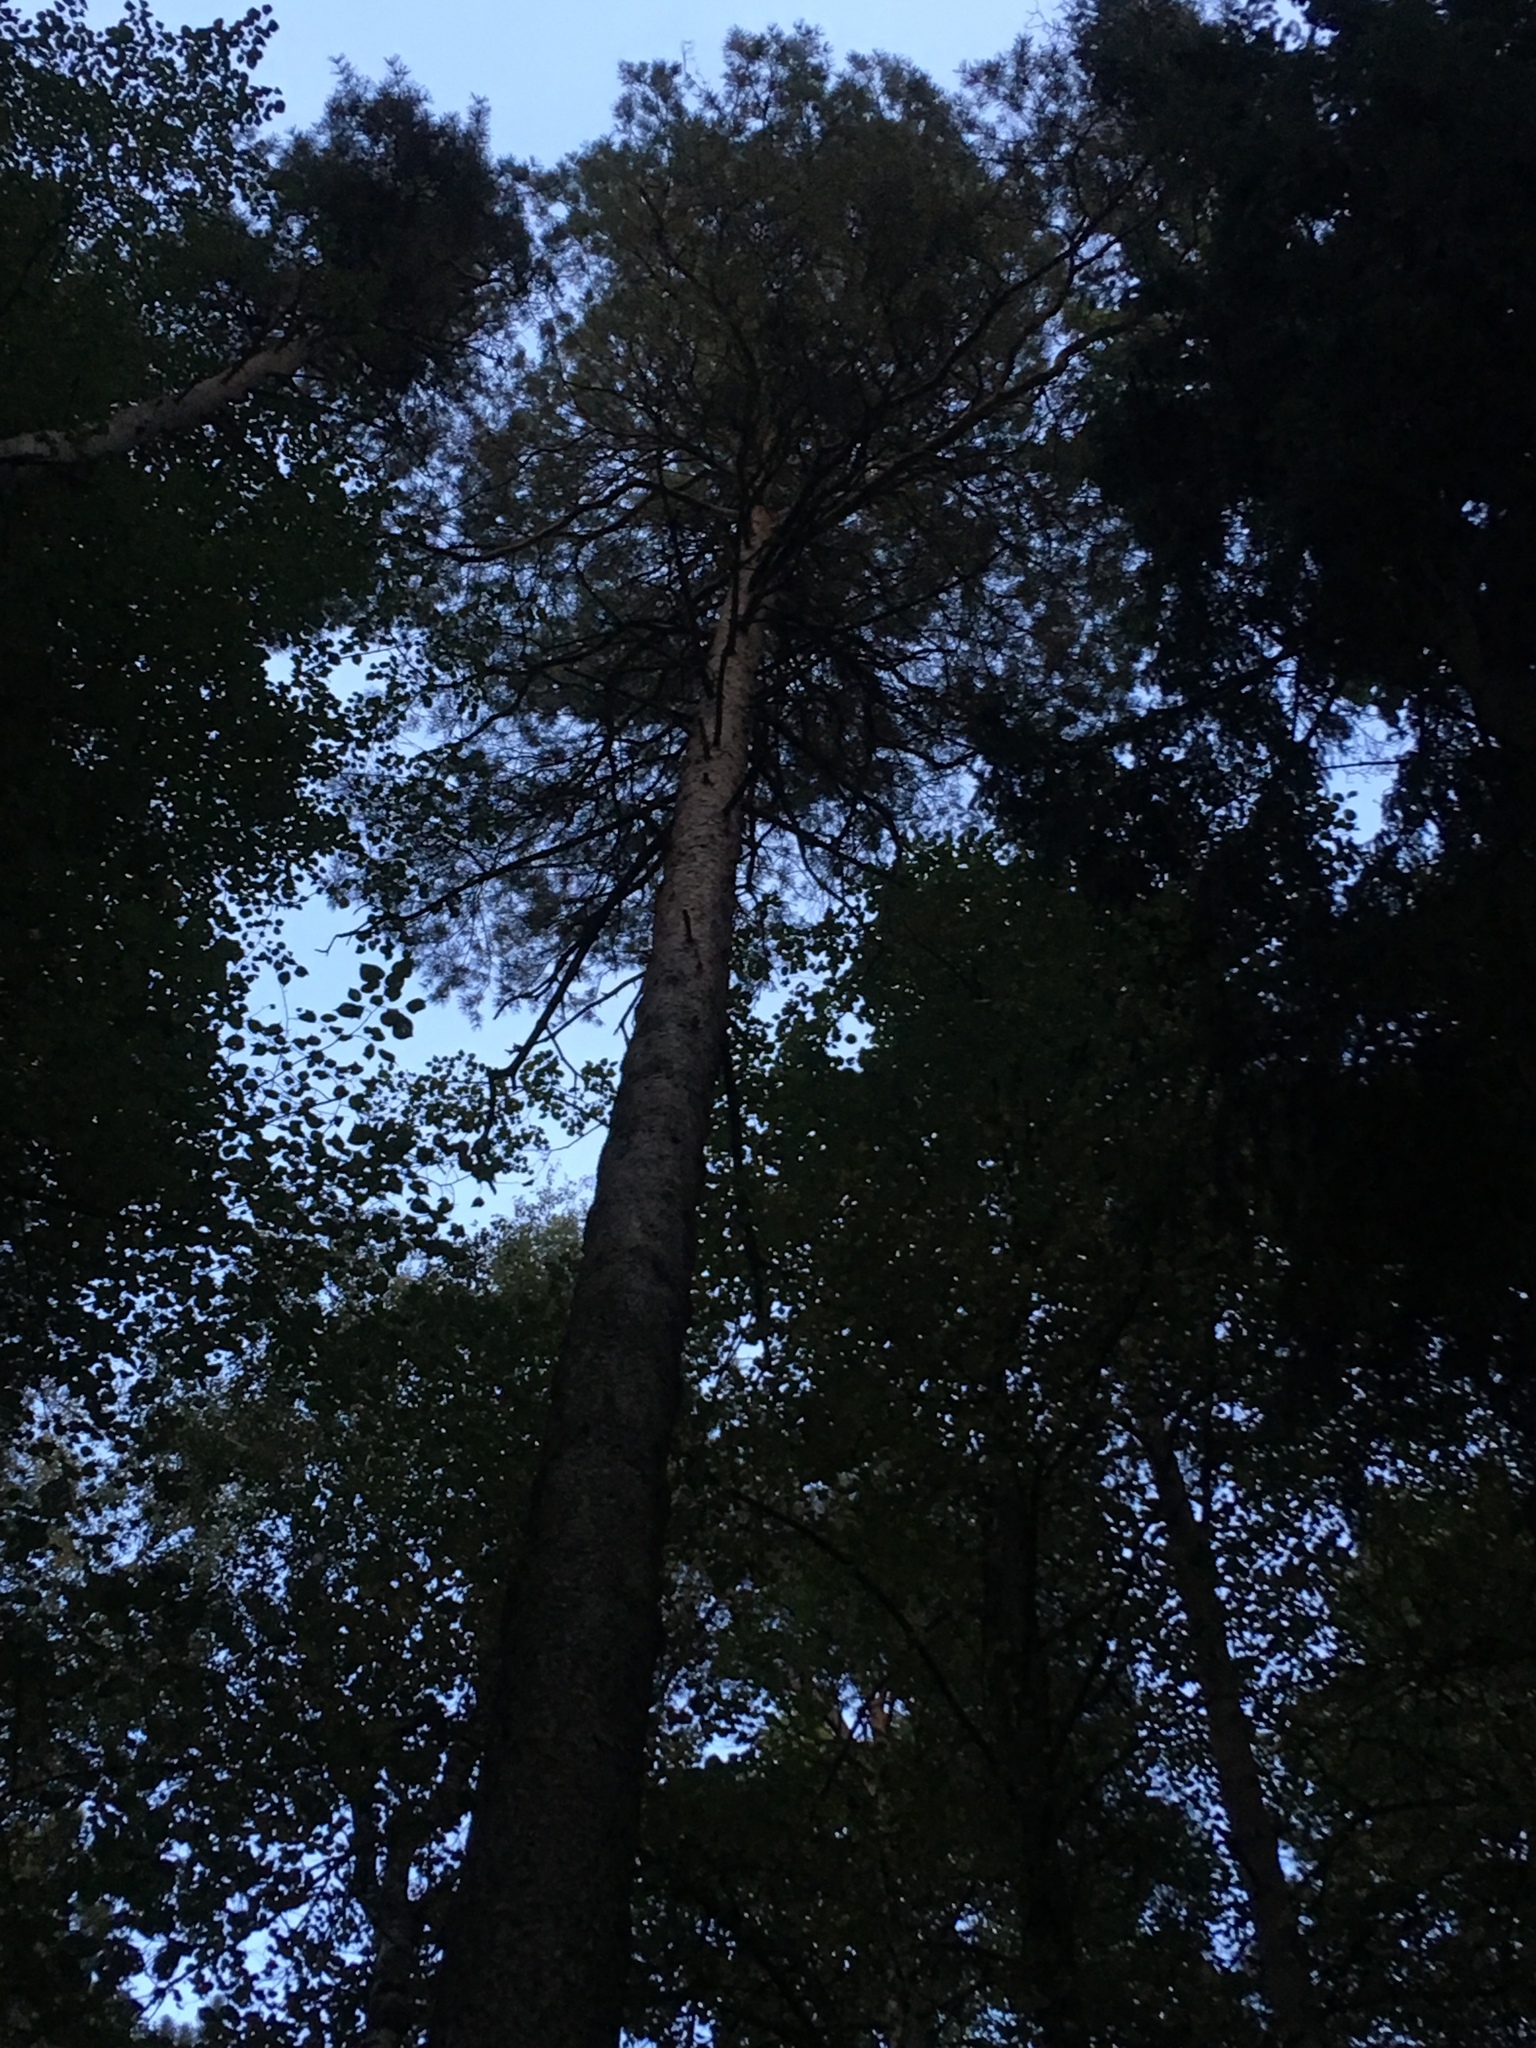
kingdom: Plantae
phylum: Tracheophyta
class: Pinopsida
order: Pinales
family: Pinaceae
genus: Pinus
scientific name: Pinus sylvestris
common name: Scots pine
